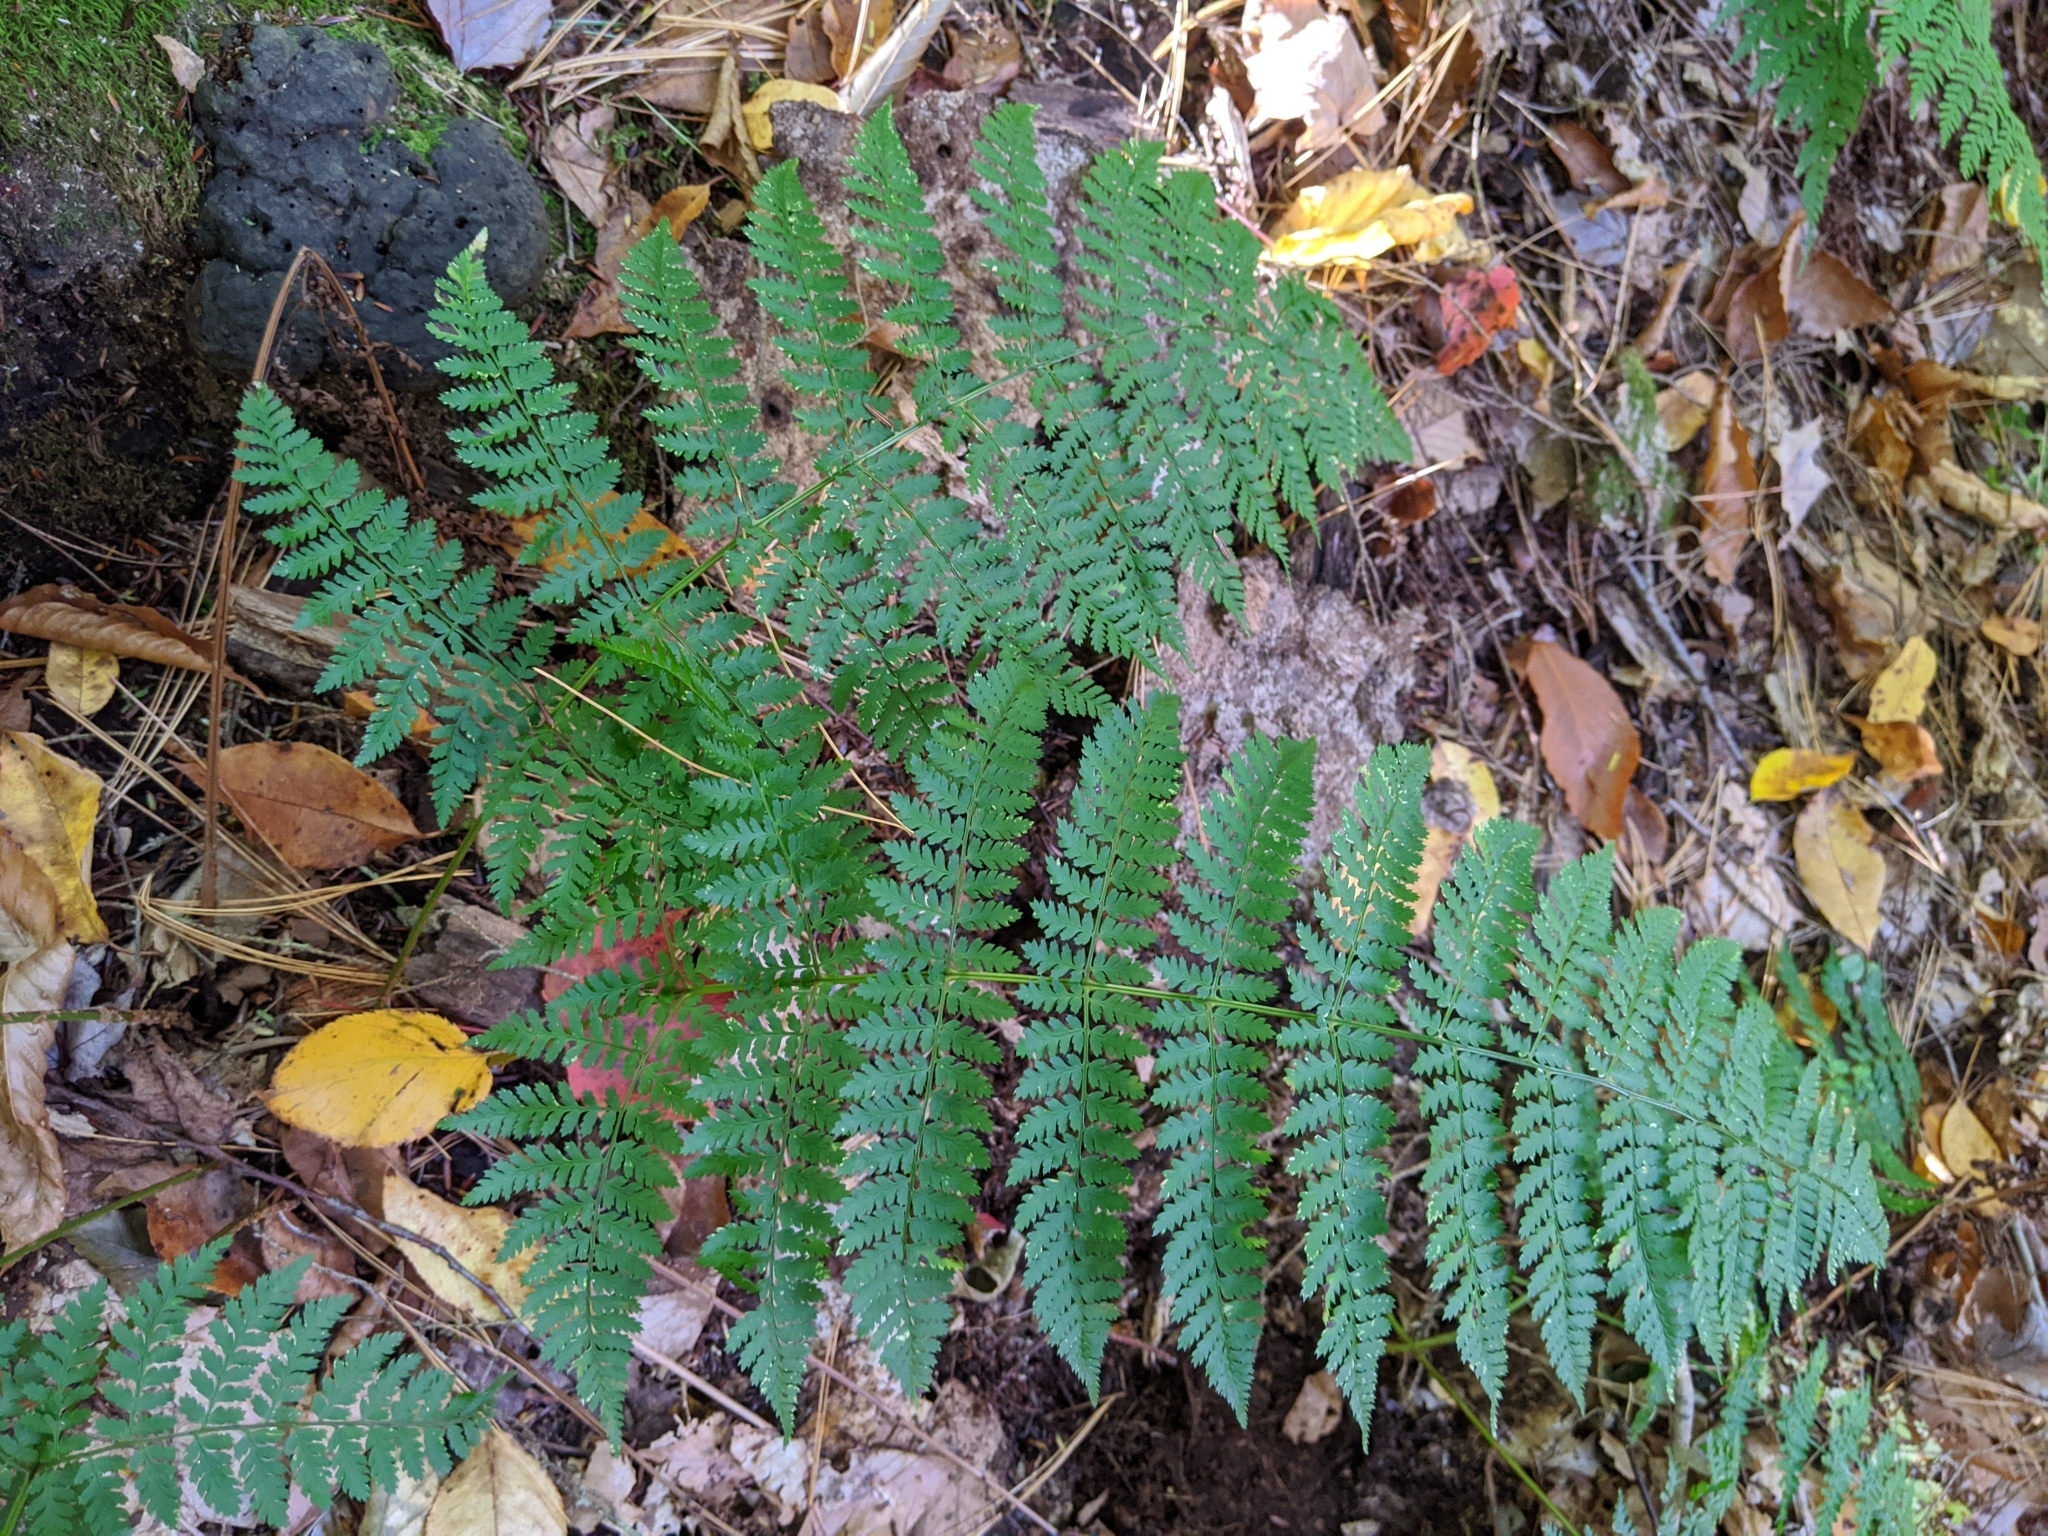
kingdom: Plantae
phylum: Tracheophyta
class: Polypodiopsida
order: Polypodiales
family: Dryopteridaceae
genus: Dryopteris
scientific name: Dryopteris intermedia
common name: Evergreen wood fern
